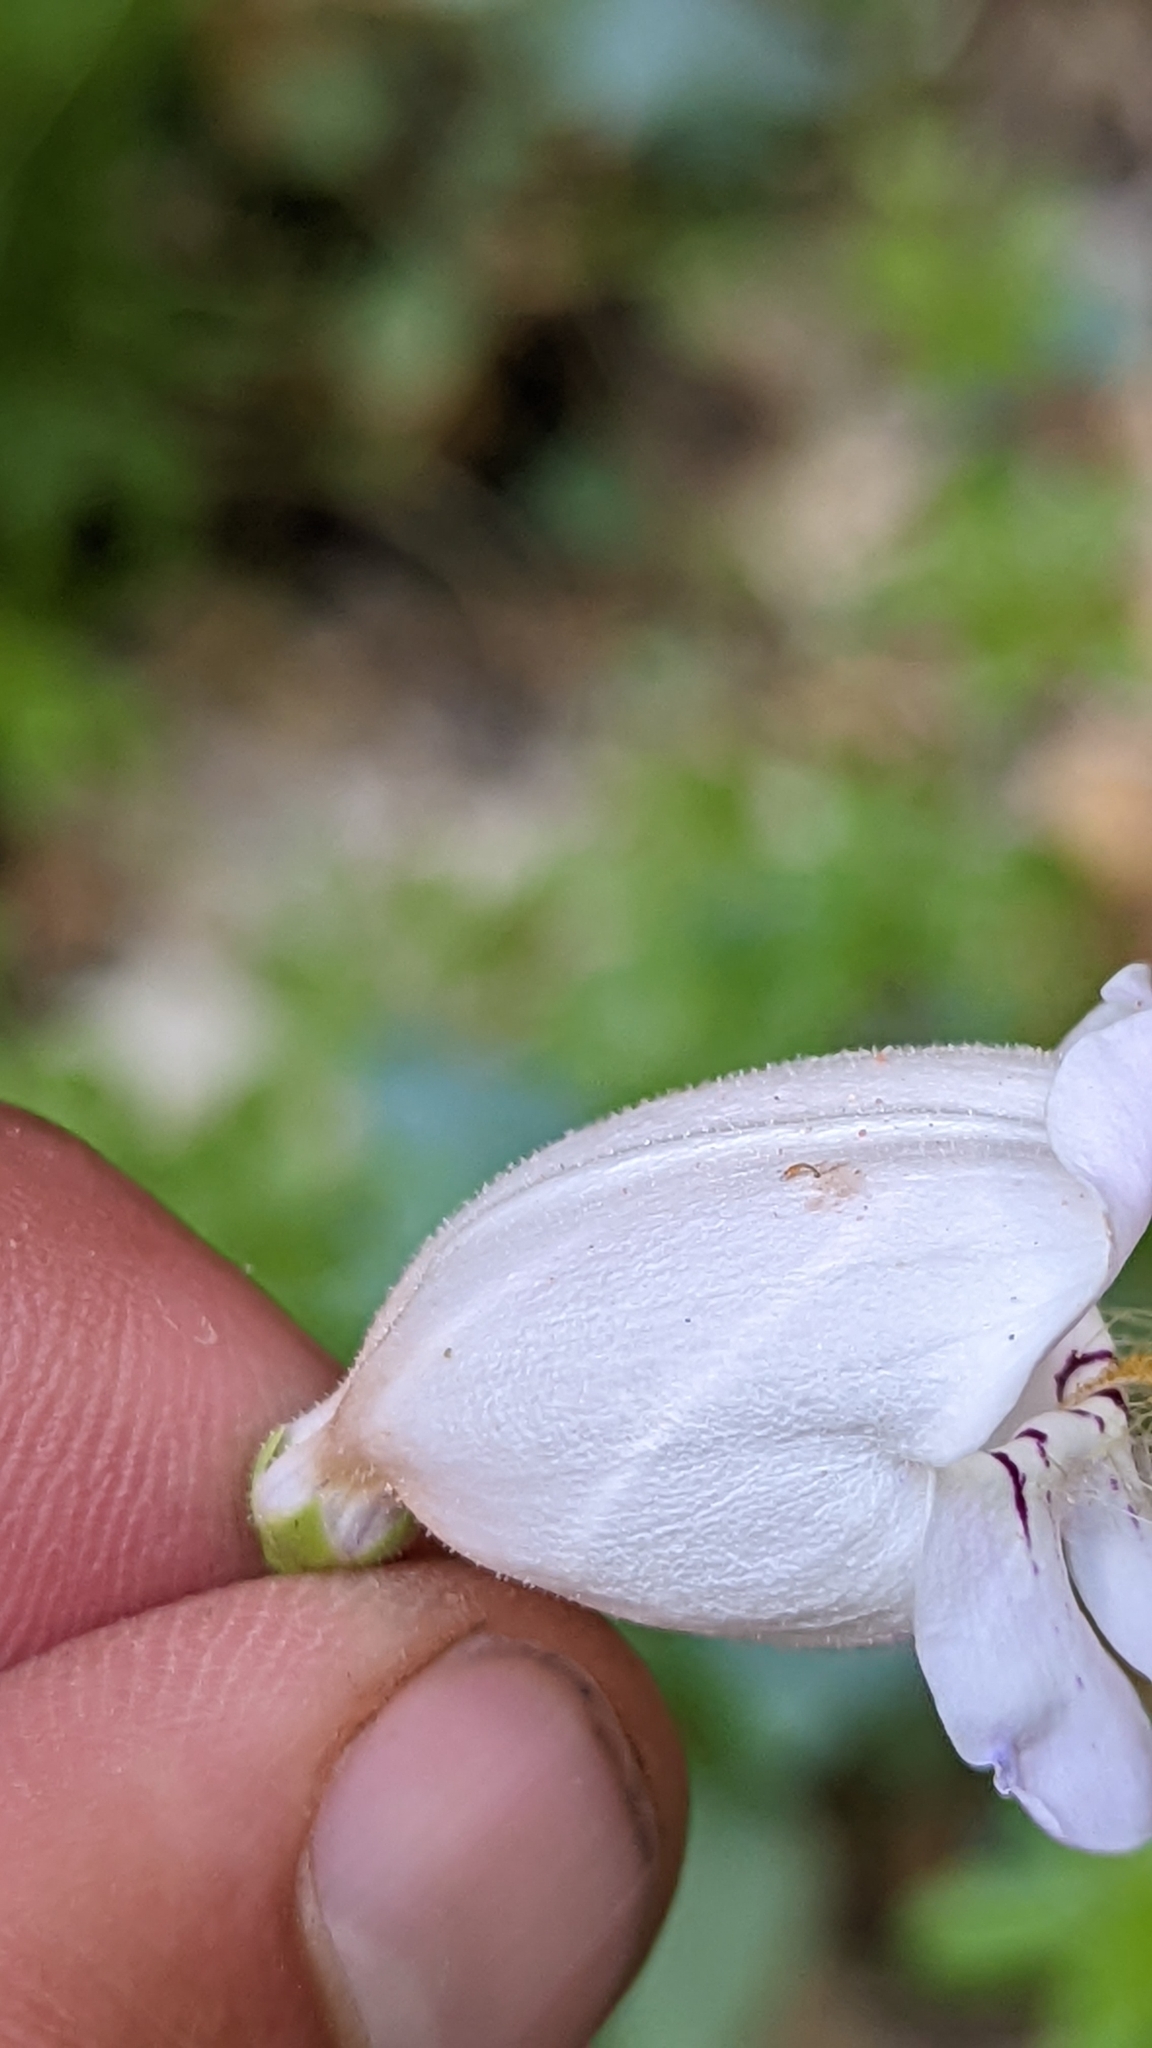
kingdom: Plantae
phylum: Tracheophyta
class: Magnoliopsida
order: Lamiales
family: Plantaginaceae
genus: Penstemon
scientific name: Penstemon palmeri
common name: Palmer penstemon
